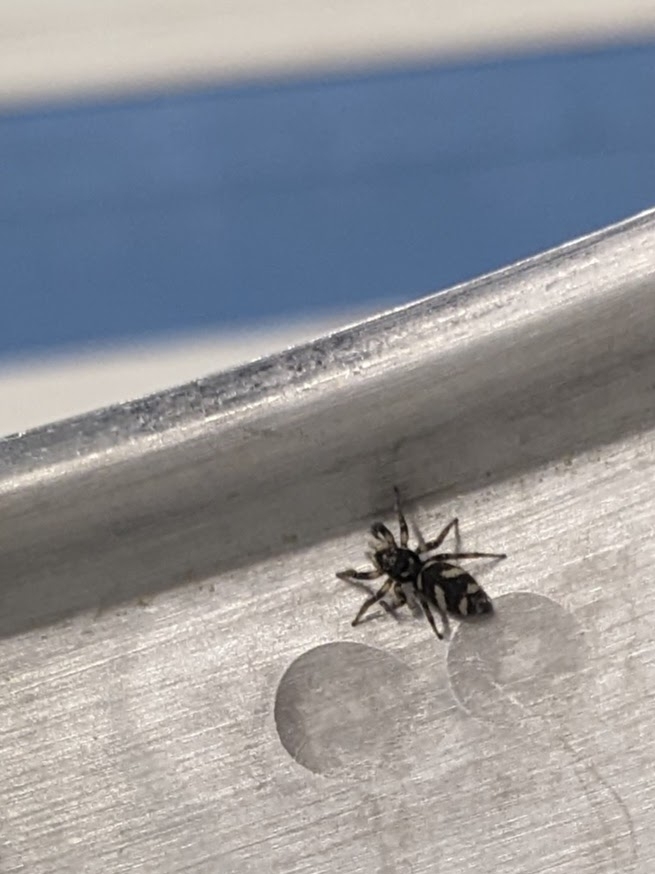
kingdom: Animalia
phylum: Arthropoda
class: Arachnida
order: Araneae
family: Salticidae
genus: Salticus
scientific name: Salticus scenicus
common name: Zebra jumper
